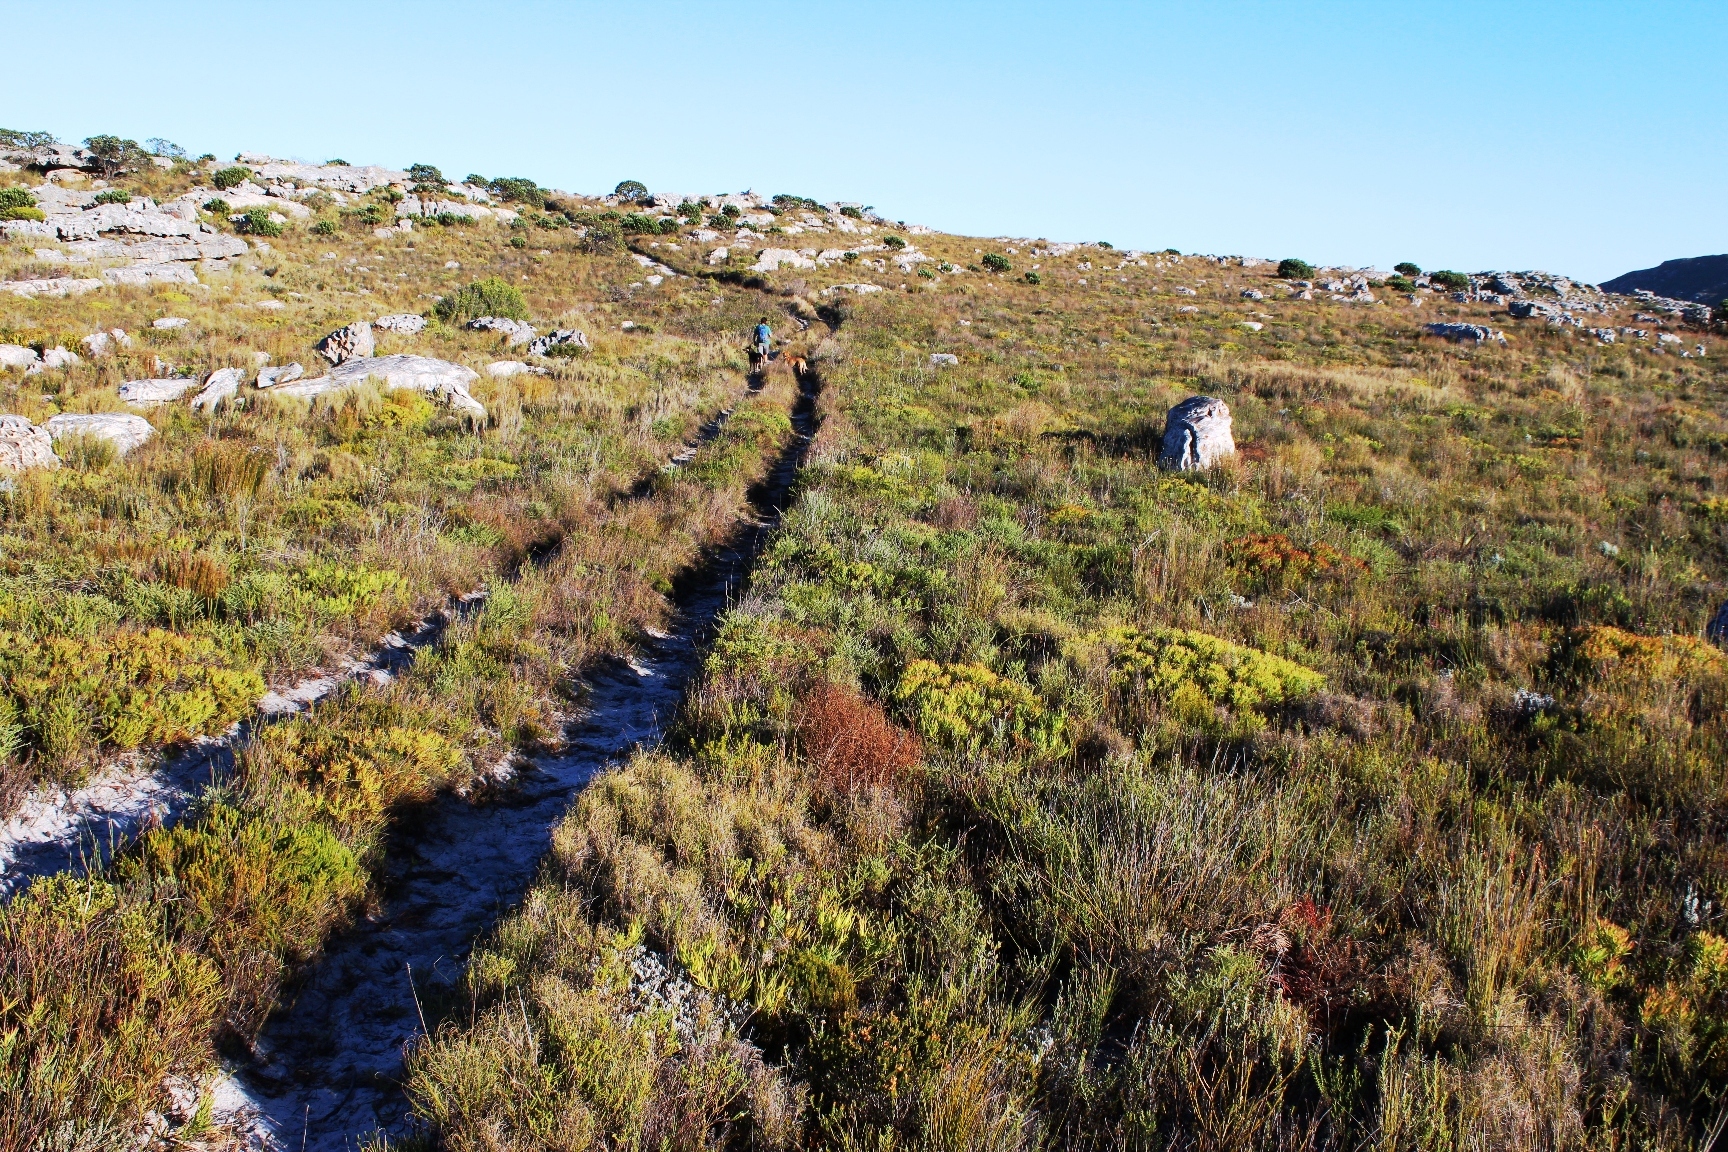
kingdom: Plantae
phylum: Tracheophyta
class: Magnoliopsida
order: Proteales
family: Proteaceae
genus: Leucadendron
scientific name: Leucadendron salignum
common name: Common sunshine conebush
